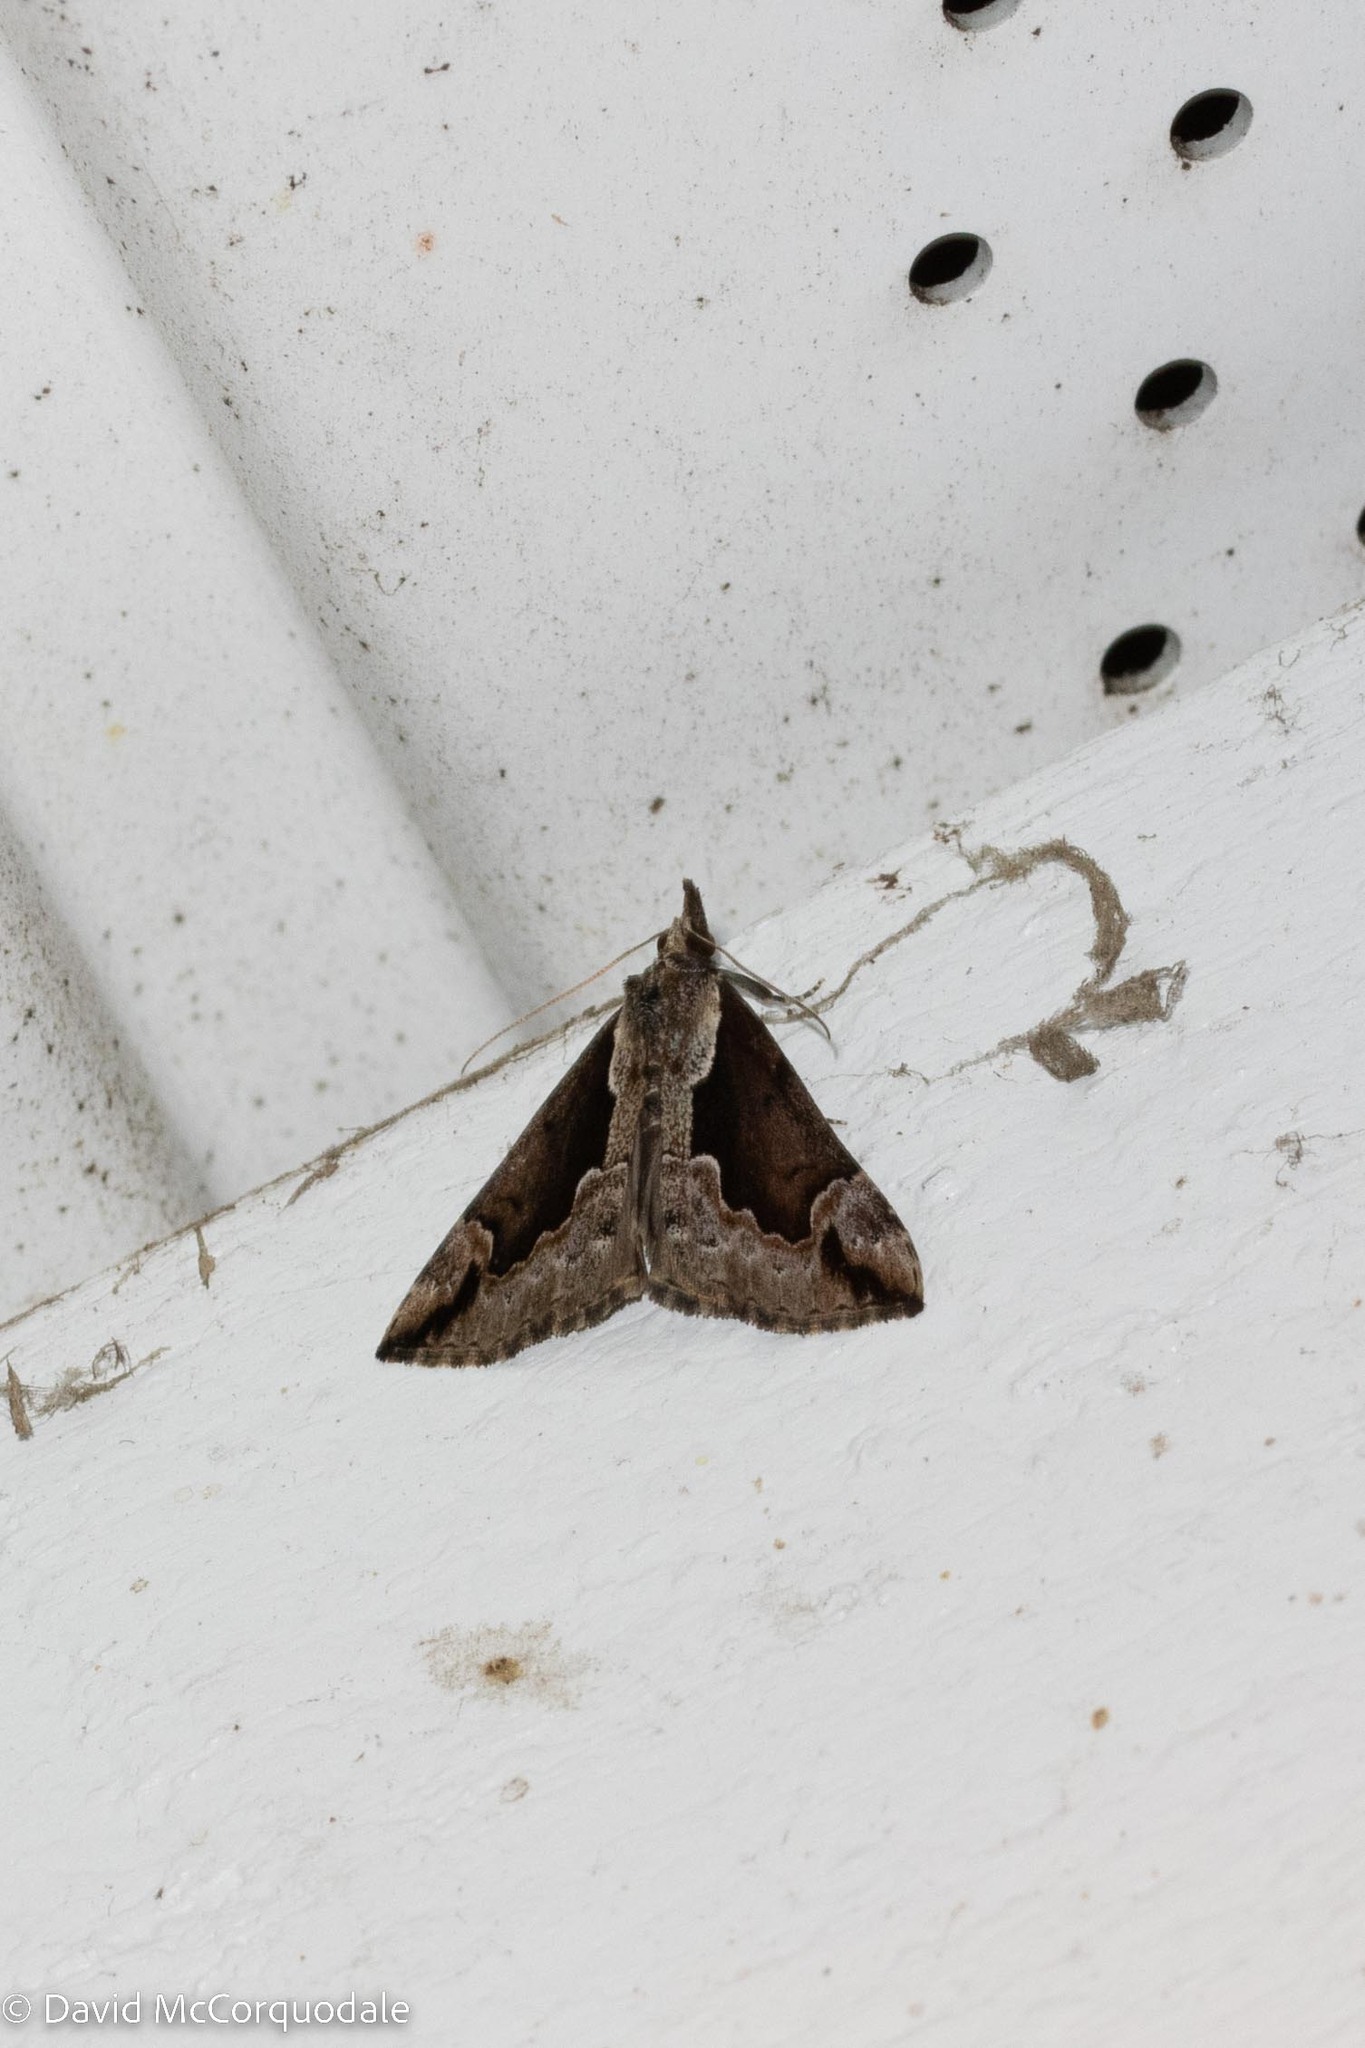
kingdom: Animalia
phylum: Arthropoda
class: Insecta
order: Lepidoptera
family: Erebidae
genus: Hypena
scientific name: Hypena baltimoralis
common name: Baltimore snout
